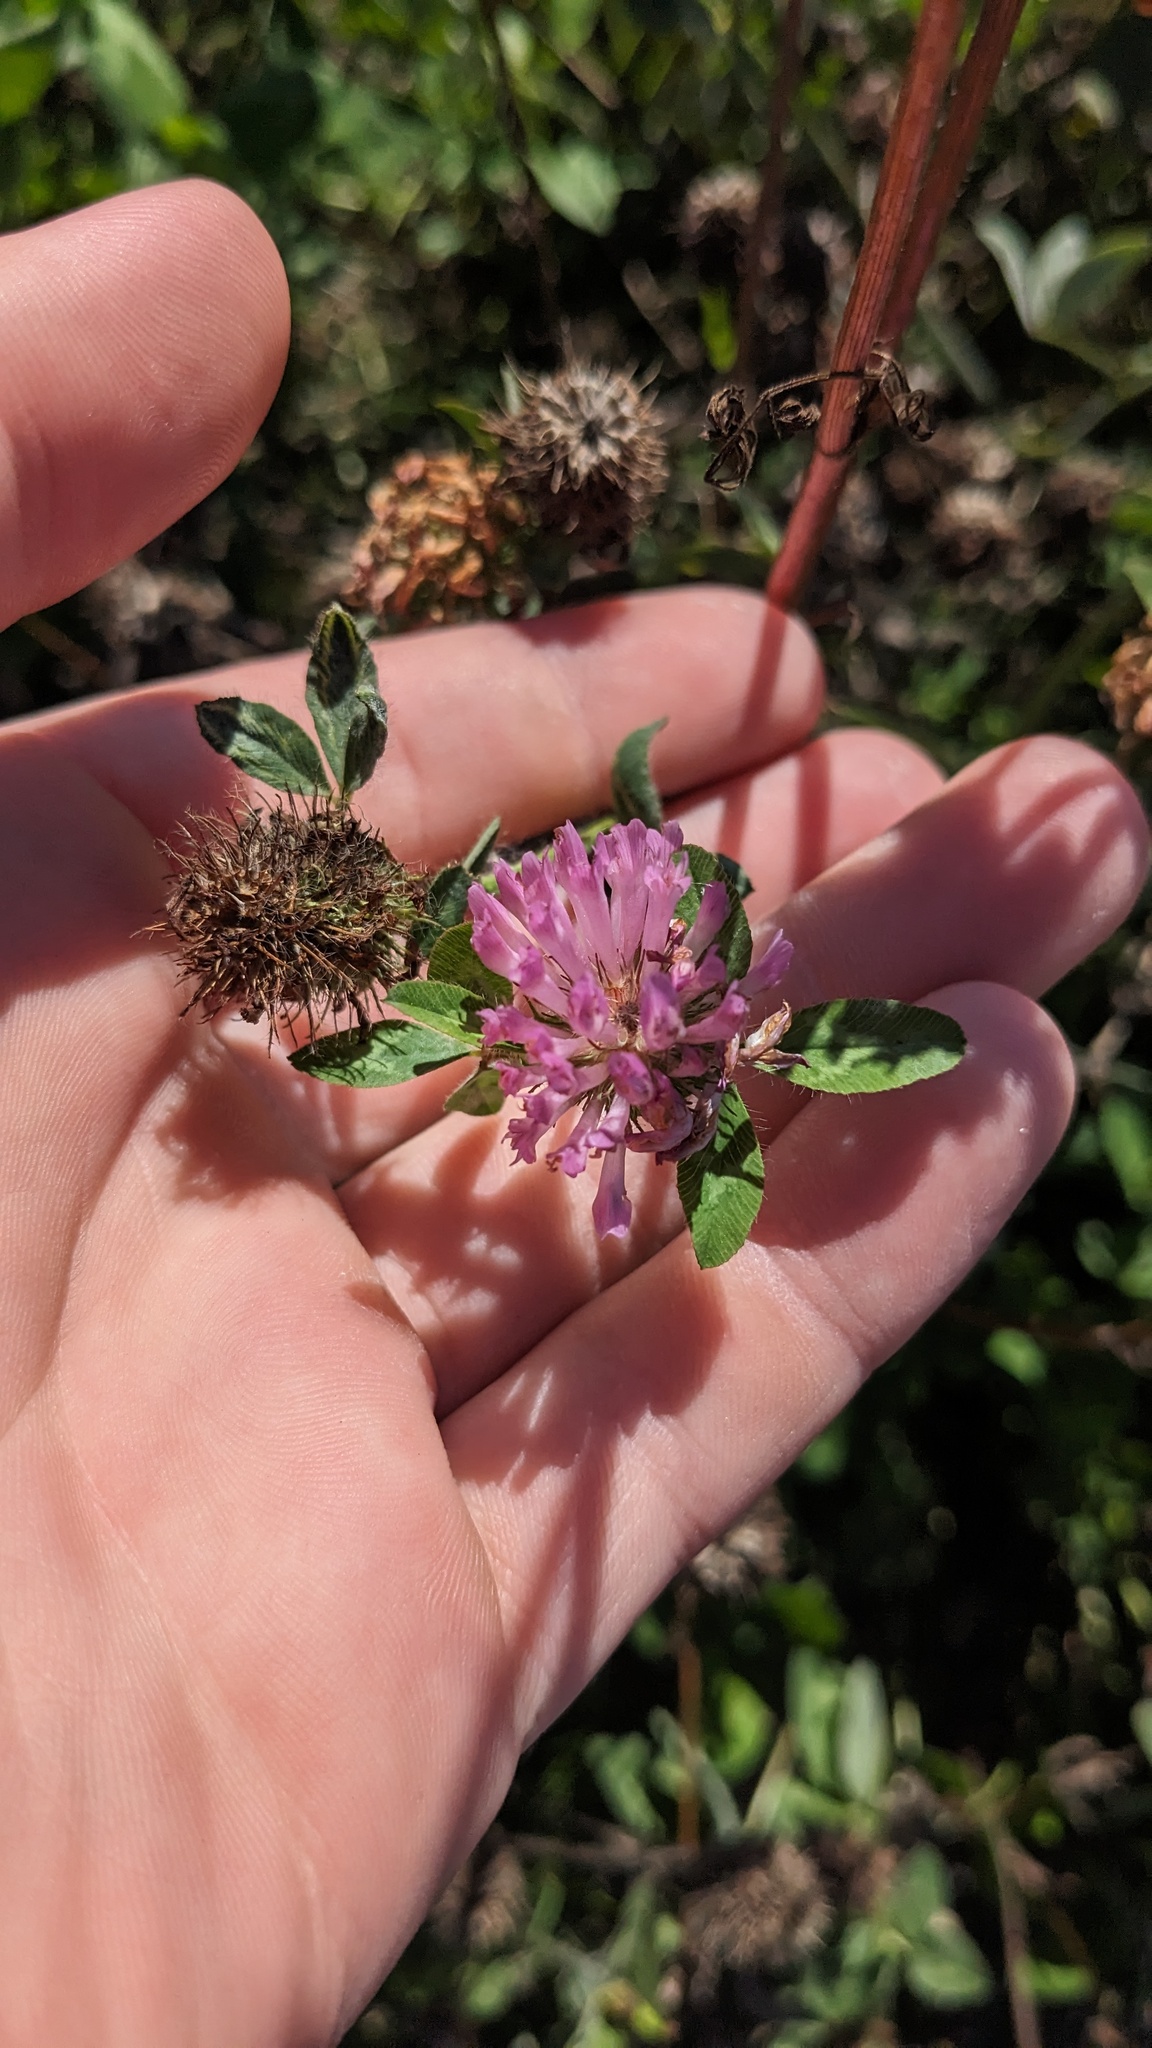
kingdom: Plantae
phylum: Tracheophyta
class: Magnoliopsida
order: Fabales
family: Fabaceae
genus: Trifolium
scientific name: Trifolium pratense
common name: Red clover
